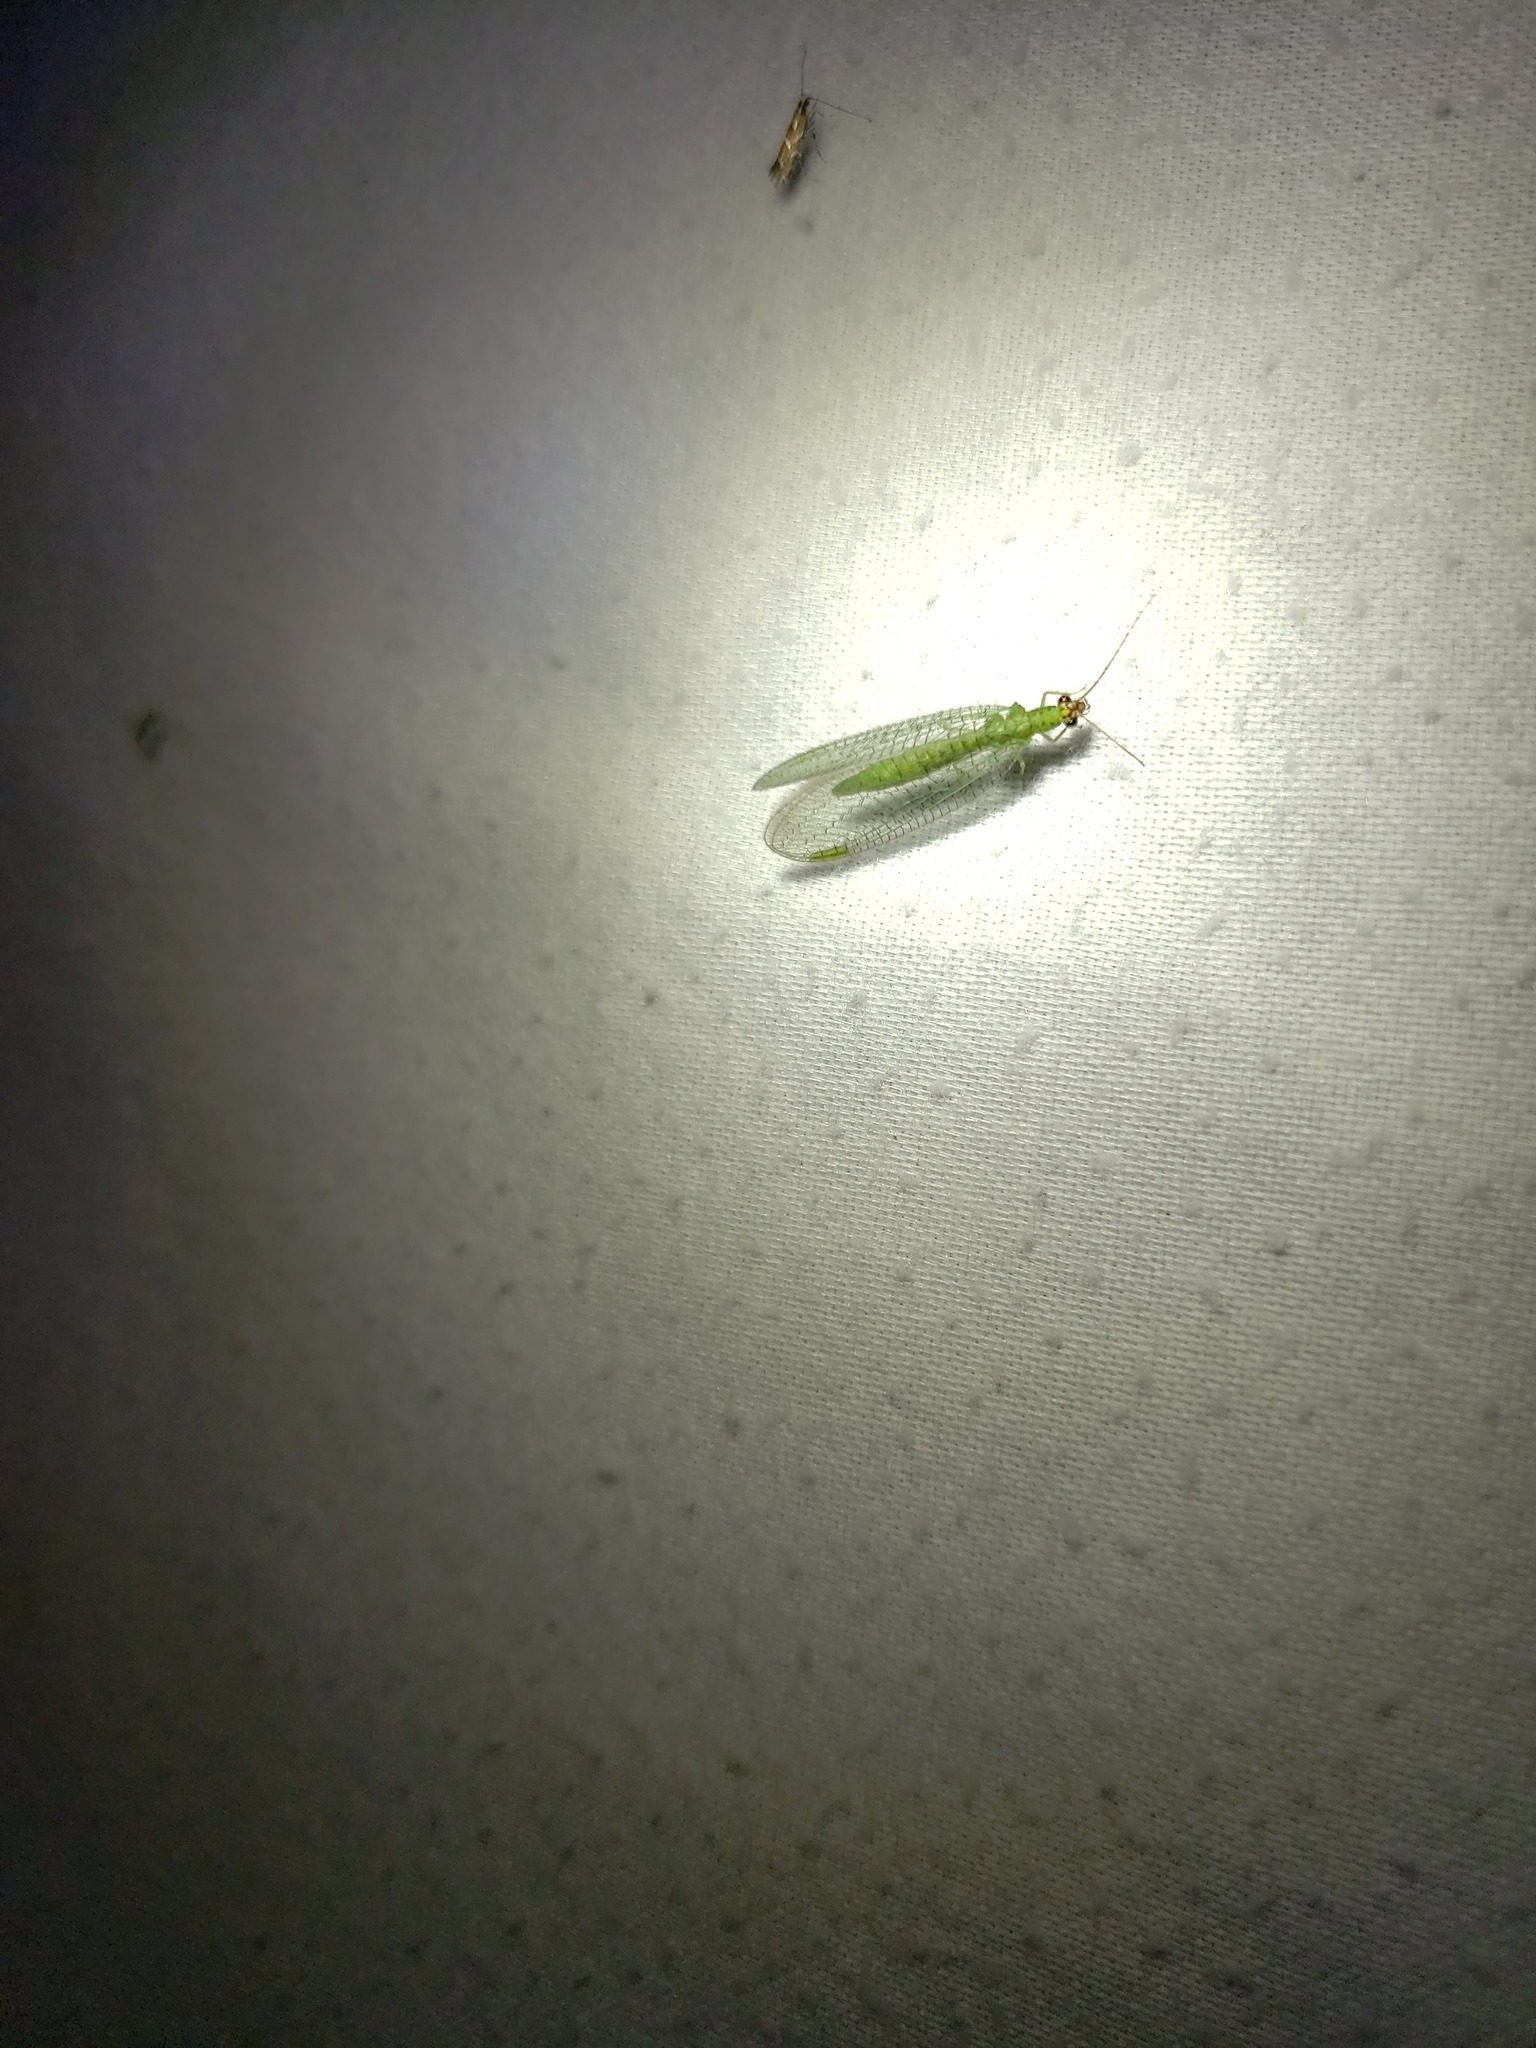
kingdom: Animalia
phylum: Arthropoda
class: Insecta
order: Neuroptera
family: Chrysopidae
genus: Chrysopa
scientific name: Chrysopa oculata
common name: Golden-eyed lacewing
